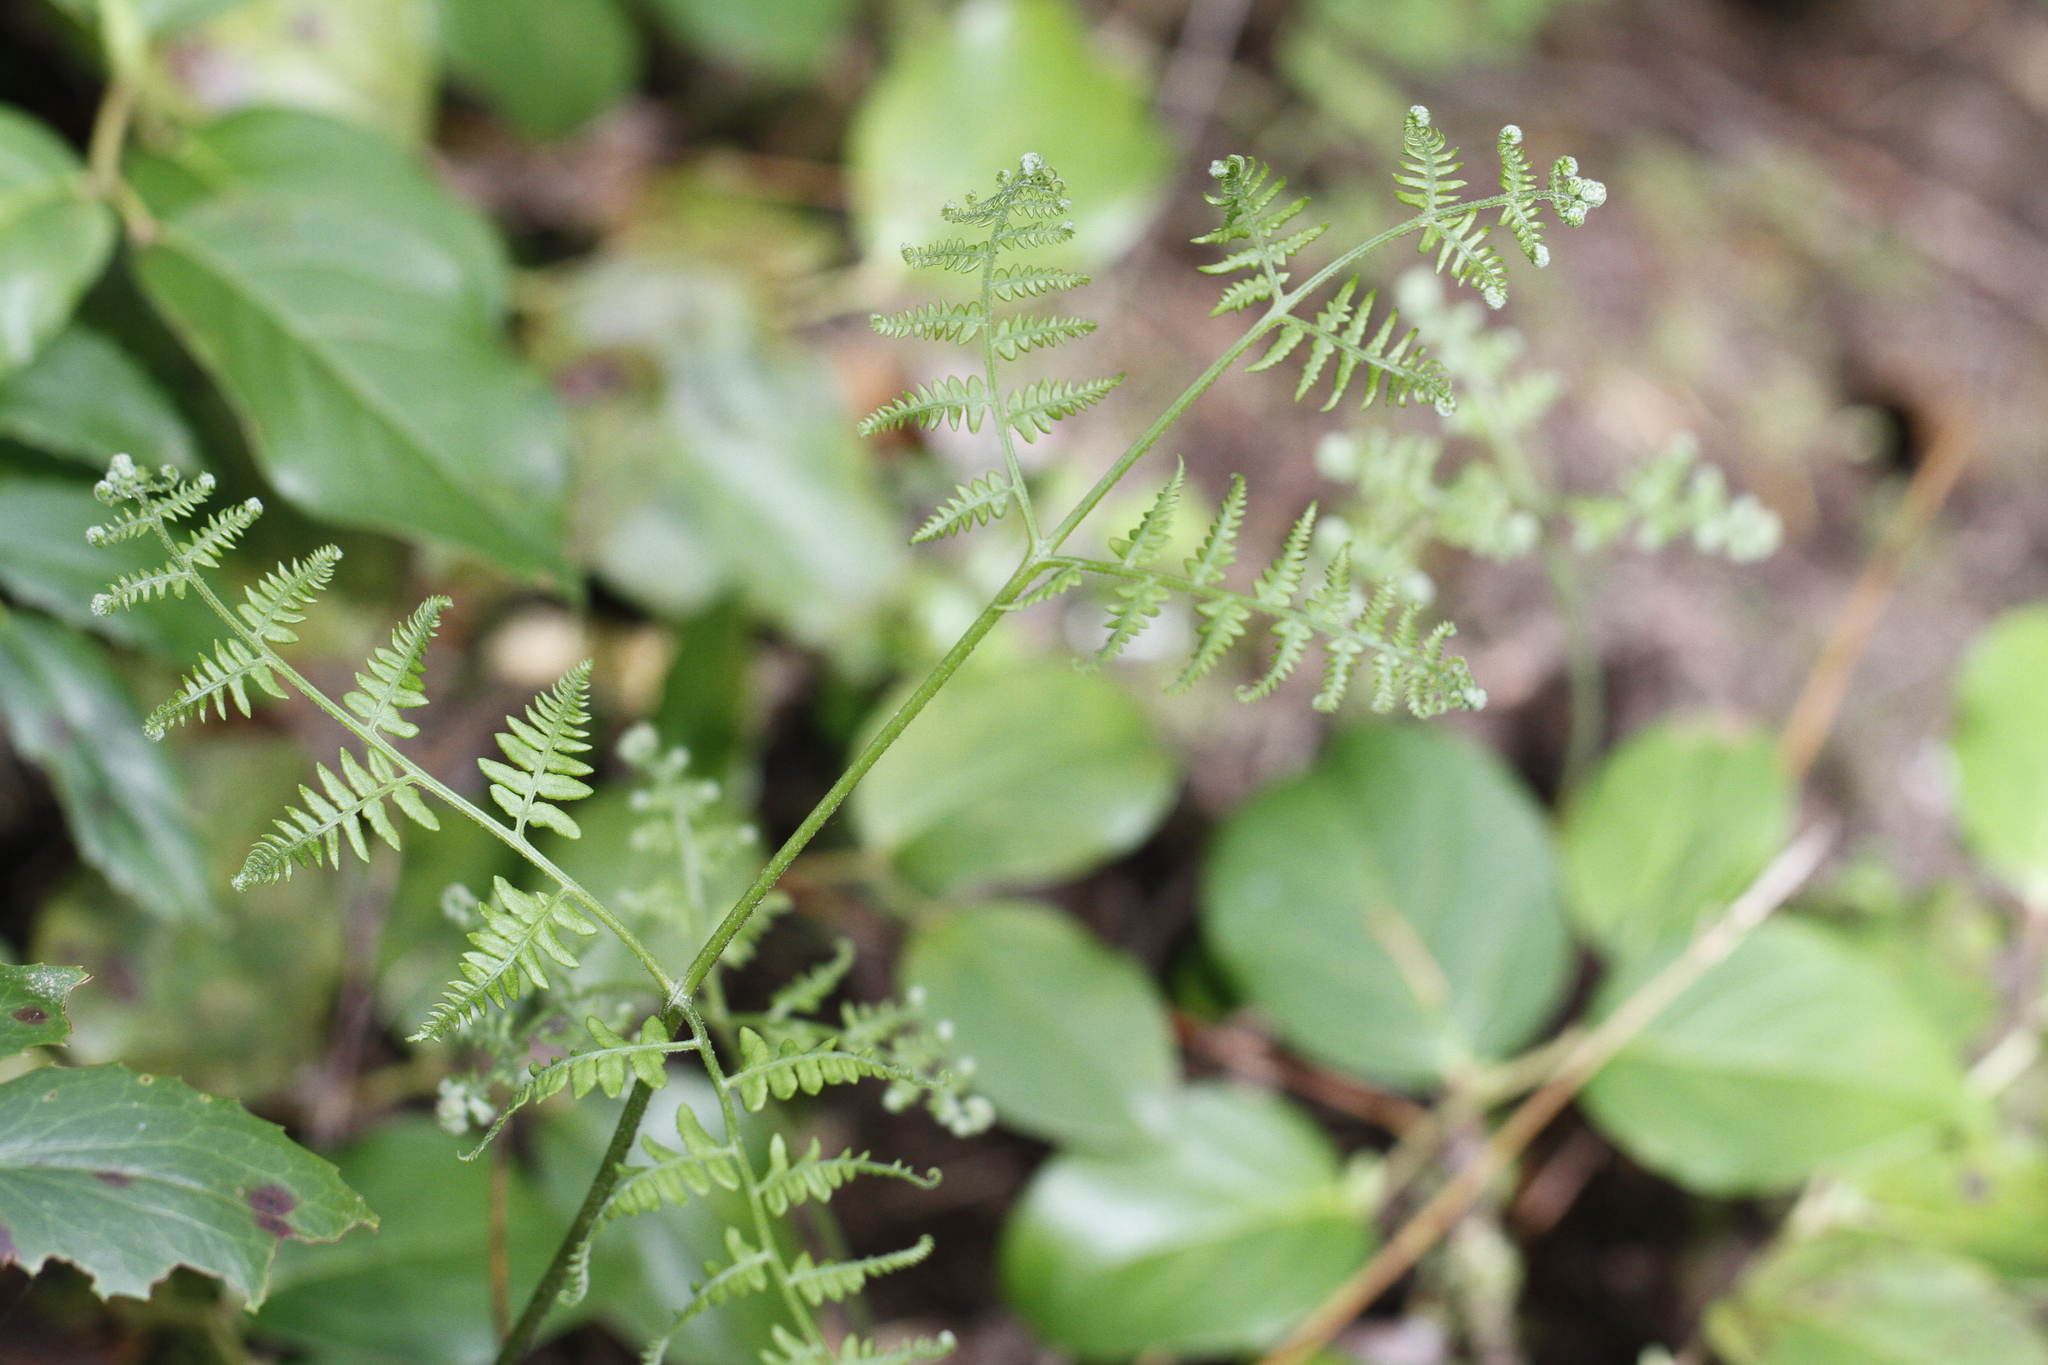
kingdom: Plantae
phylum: Tracheophyta
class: Polypodiopsida
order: Polypodiales
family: Dennstaedtiaceae
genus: Pteridium
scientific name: Pteridium aquilinum
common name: Bracken
